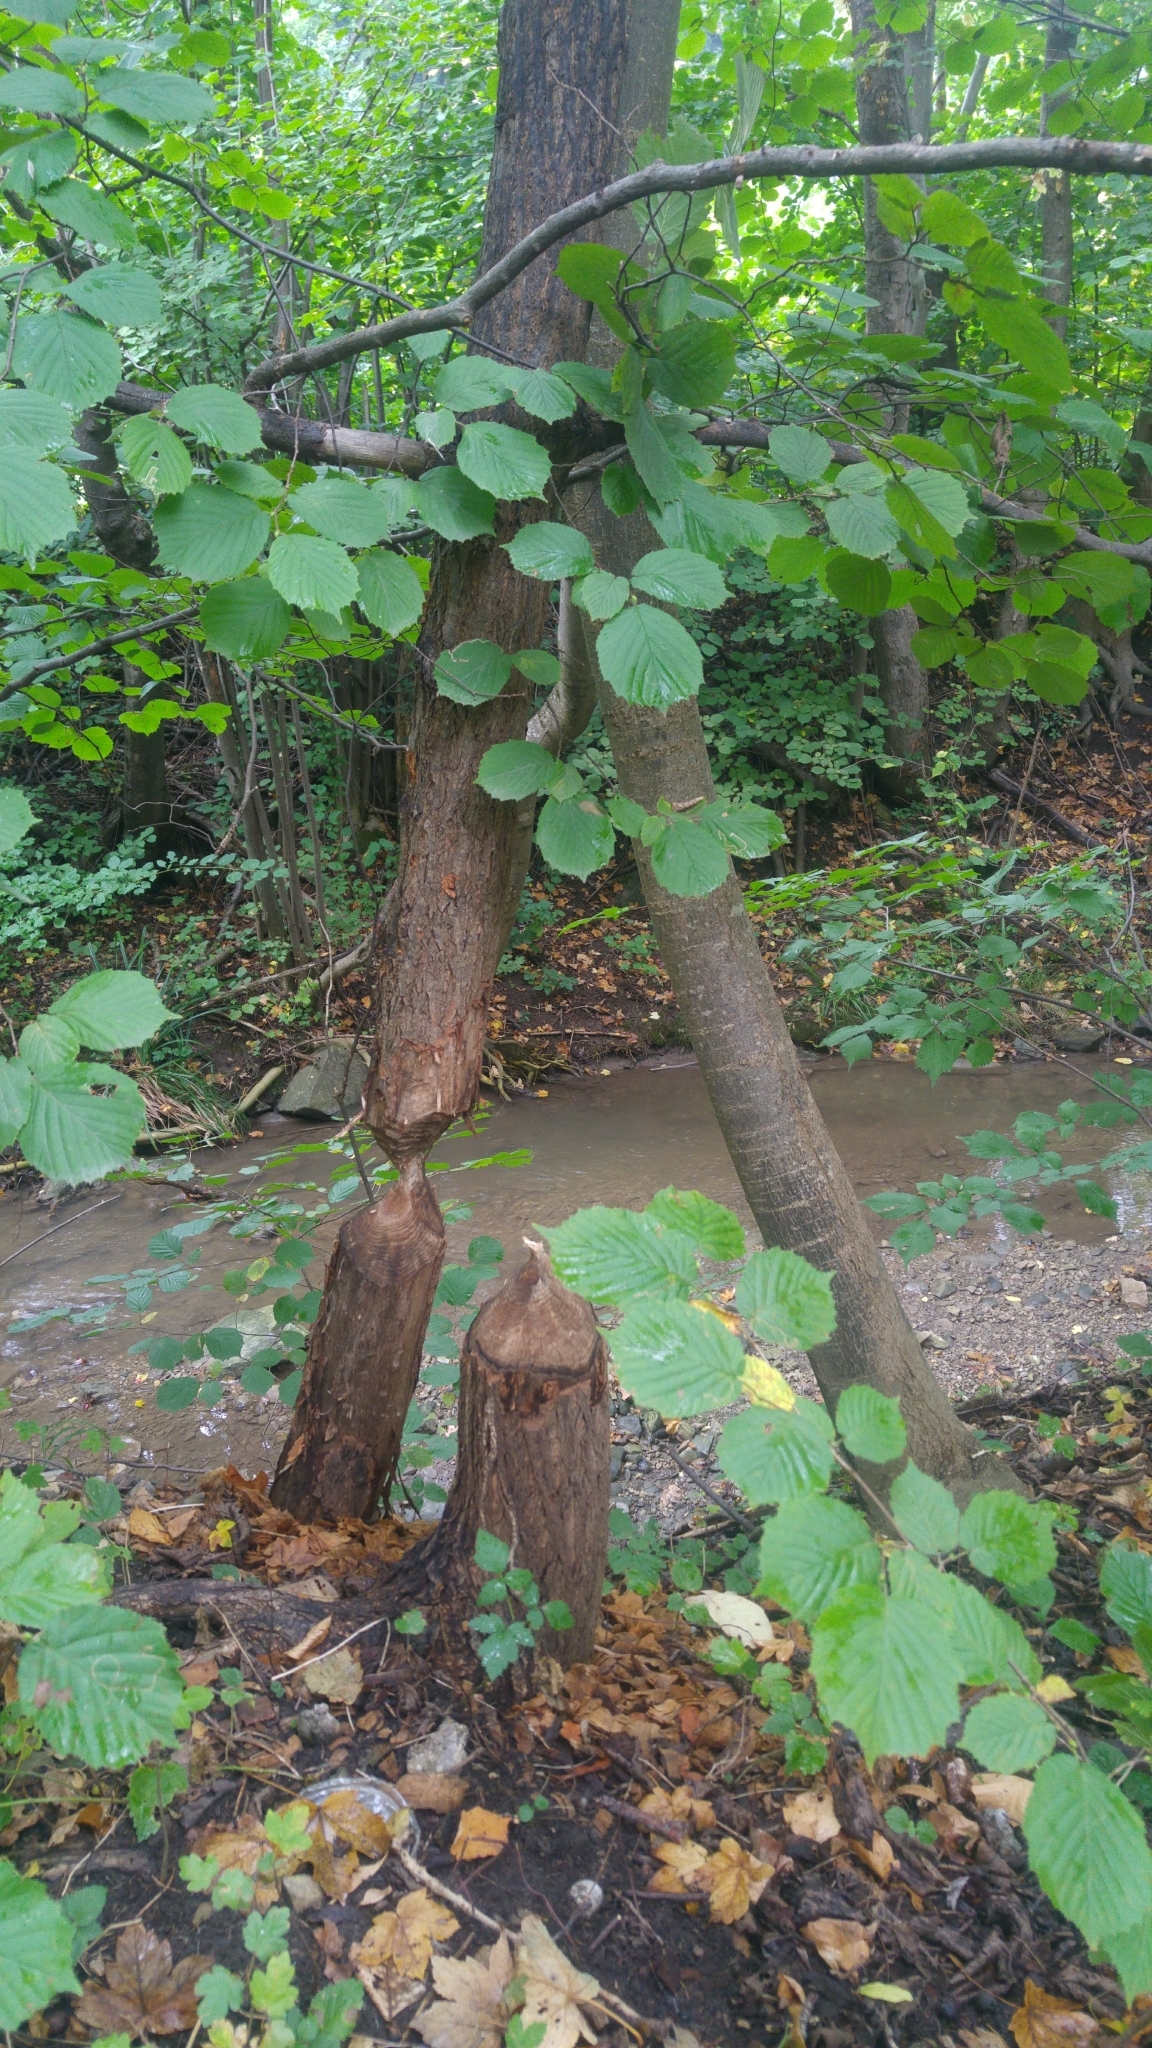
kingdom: Animalia
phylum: Chordata
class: Mammalia
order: Rodentia
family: Castoridae
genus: Castor
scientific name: Castor fiber
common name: Eurasian beaver
